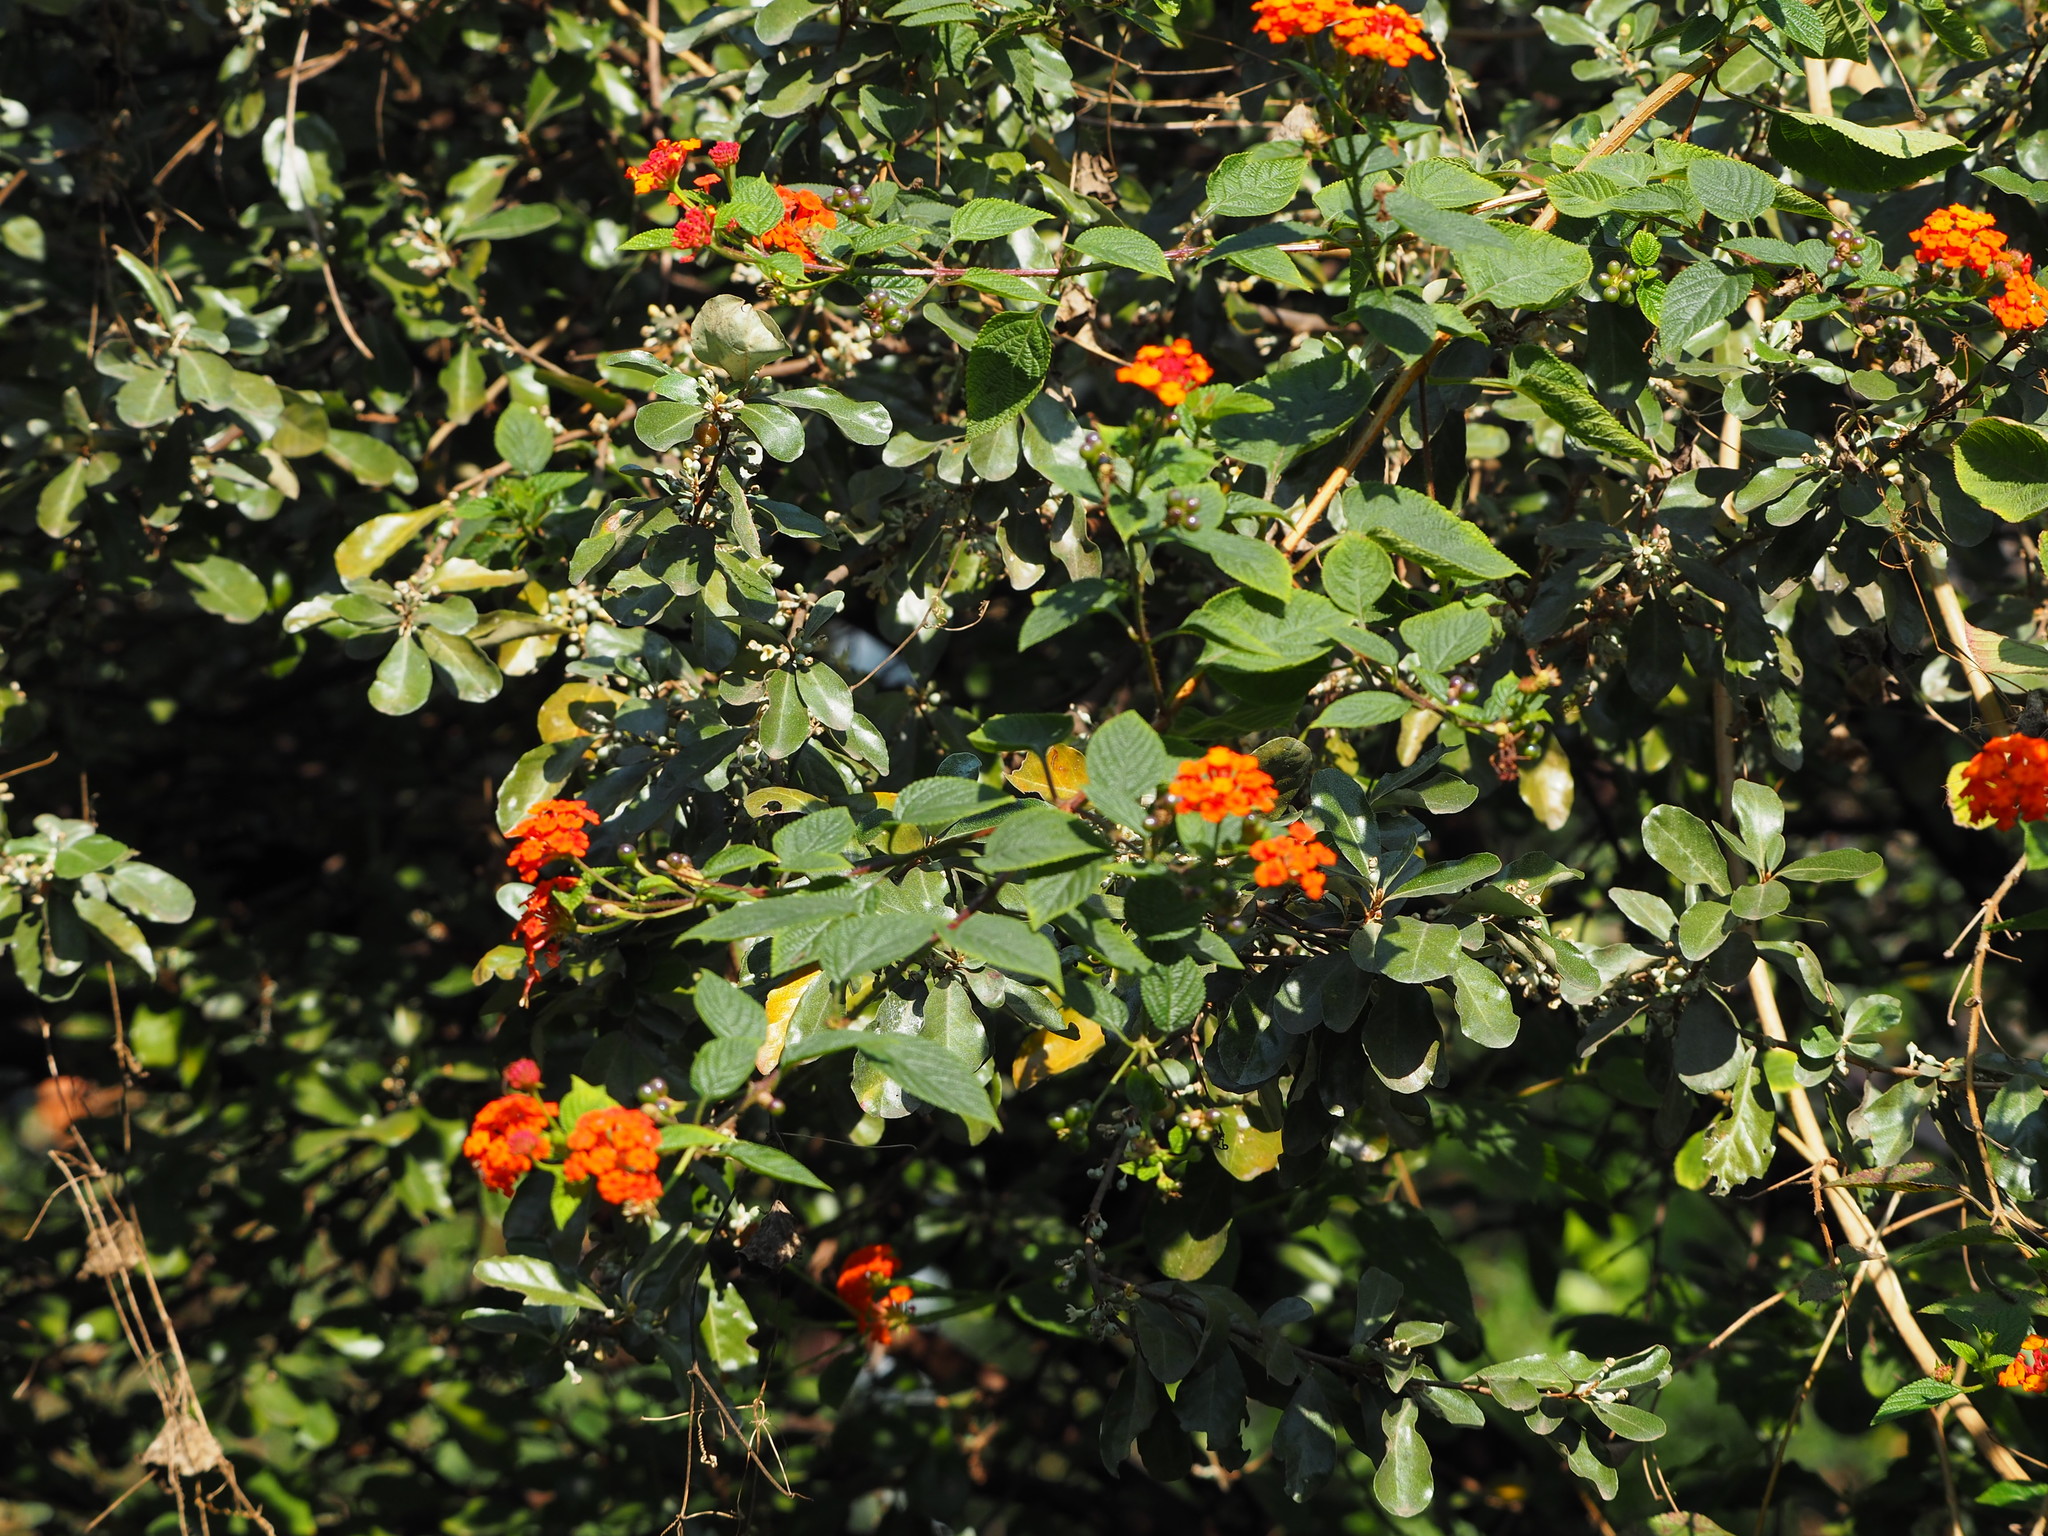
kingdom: Plantae
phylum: Tracheophyta
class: Magnoliopsida
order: Lamiales
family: Verbenaceae
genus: Lantana
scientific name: Lantana camara
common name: Lantana
